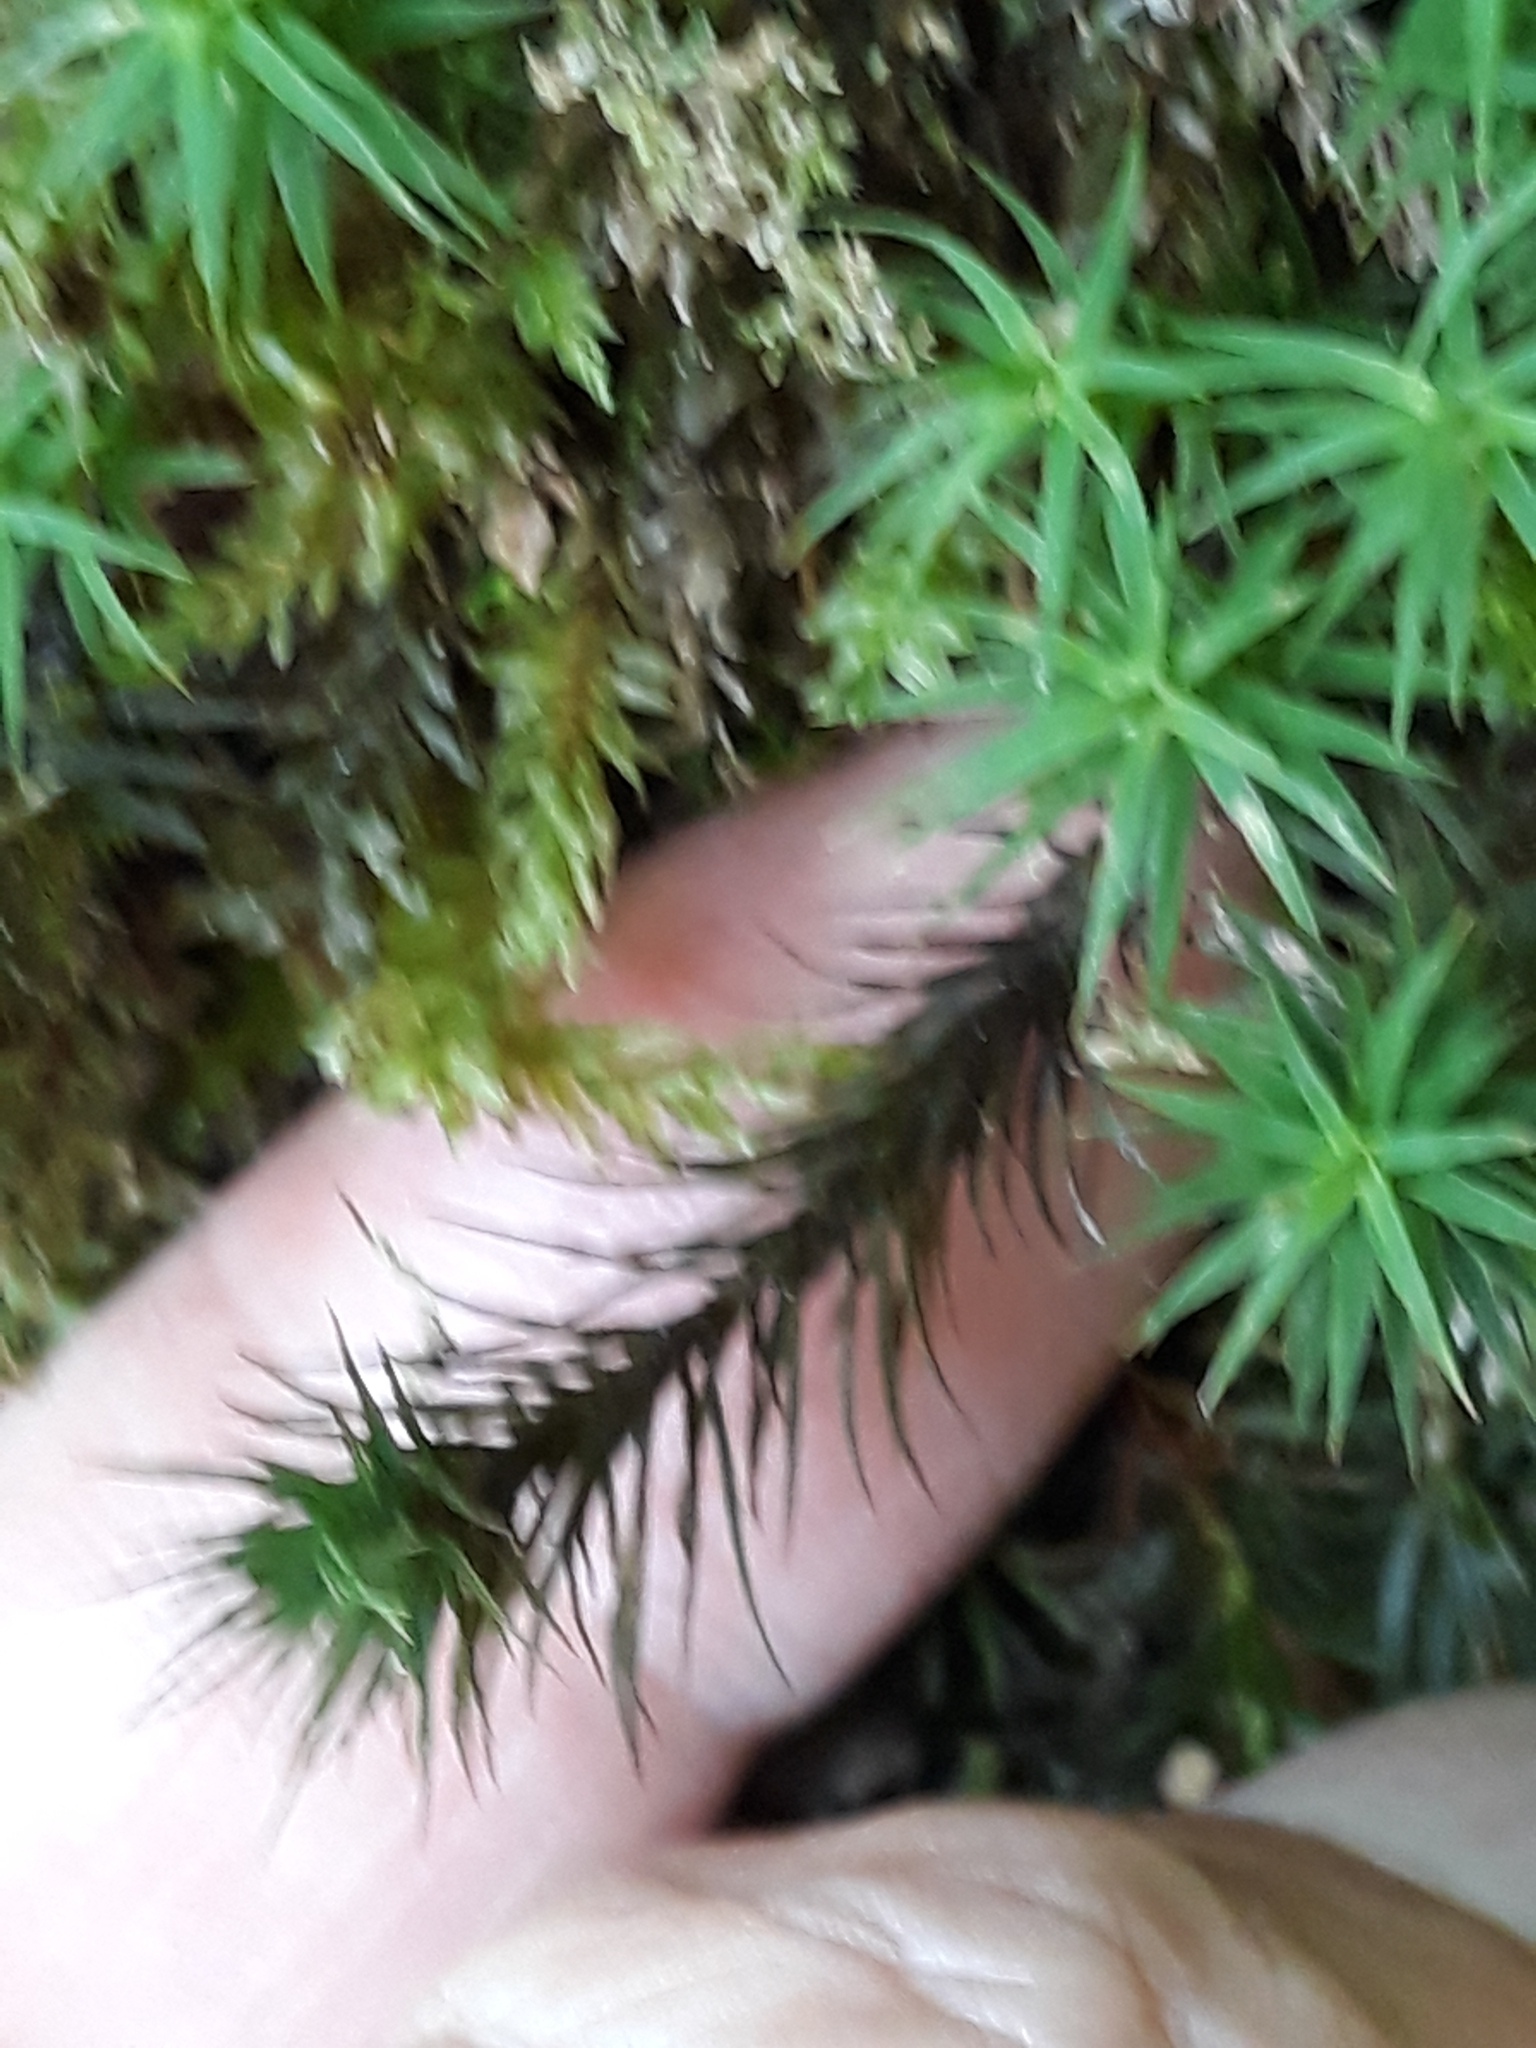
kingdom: Plantae
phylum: Bryophyta
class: Polytrichopsida
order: Polytrichales
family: Polytrichaceae
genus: Polytrichum
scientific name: Polytrichum formosum
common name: Bank haircap moss
